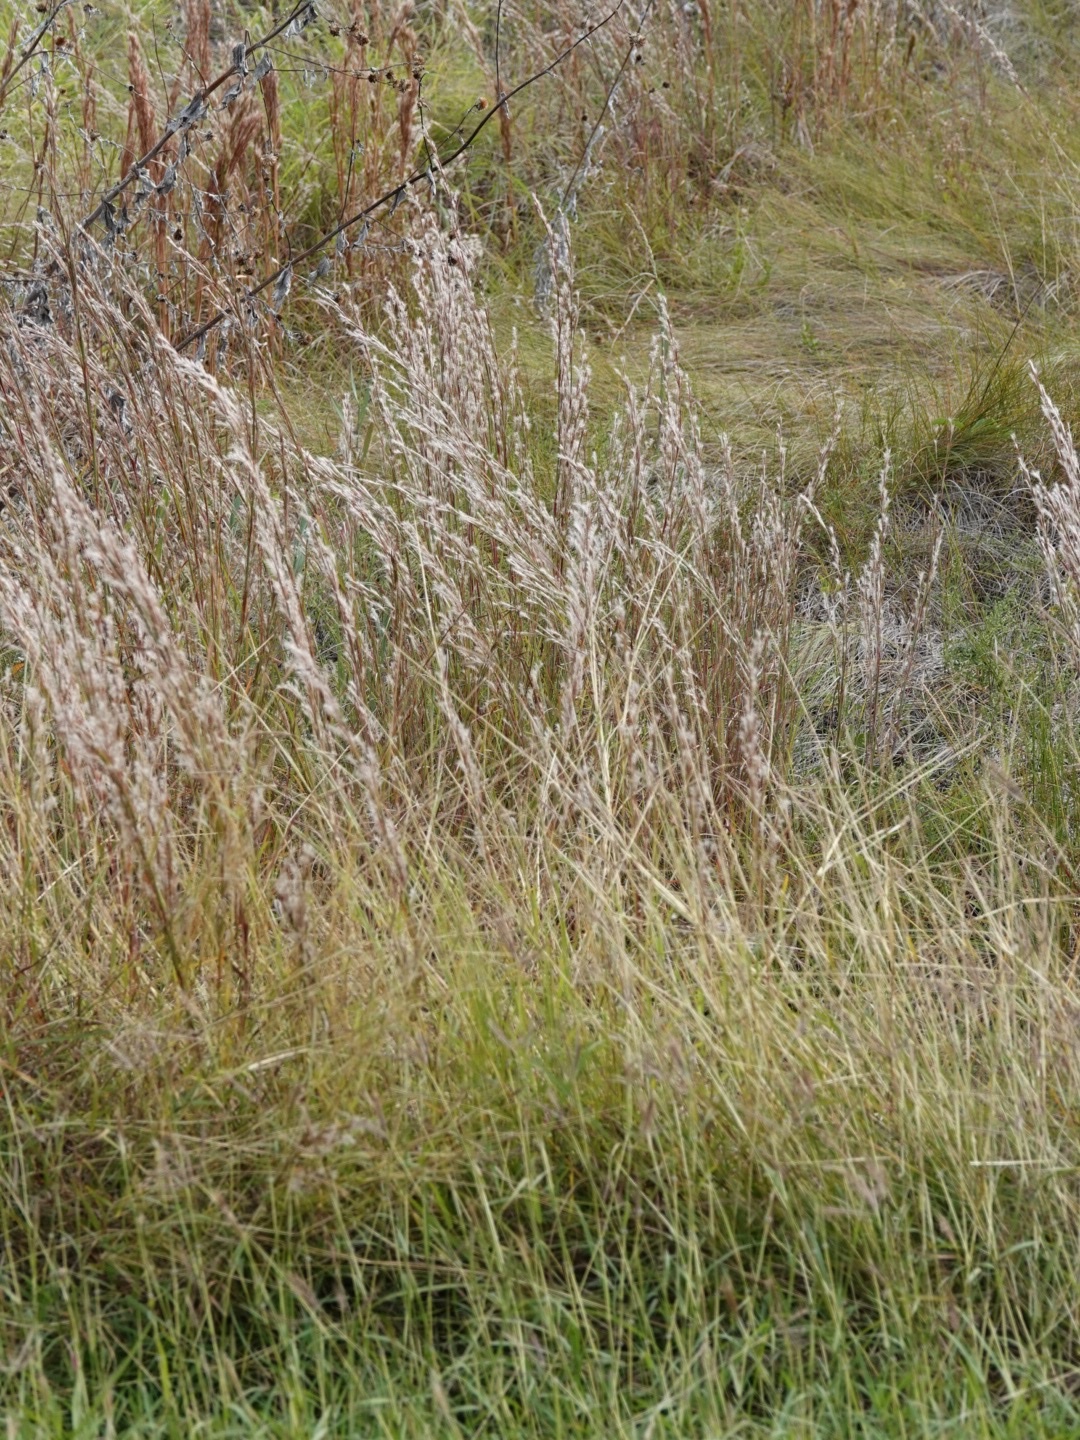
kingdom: Plantae
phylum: Tracheophyta
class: Liliopsida
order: Poales
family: Poaceae
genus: Schizachyrium
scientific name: Schizachyrium scoparium
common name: Little bluestem
